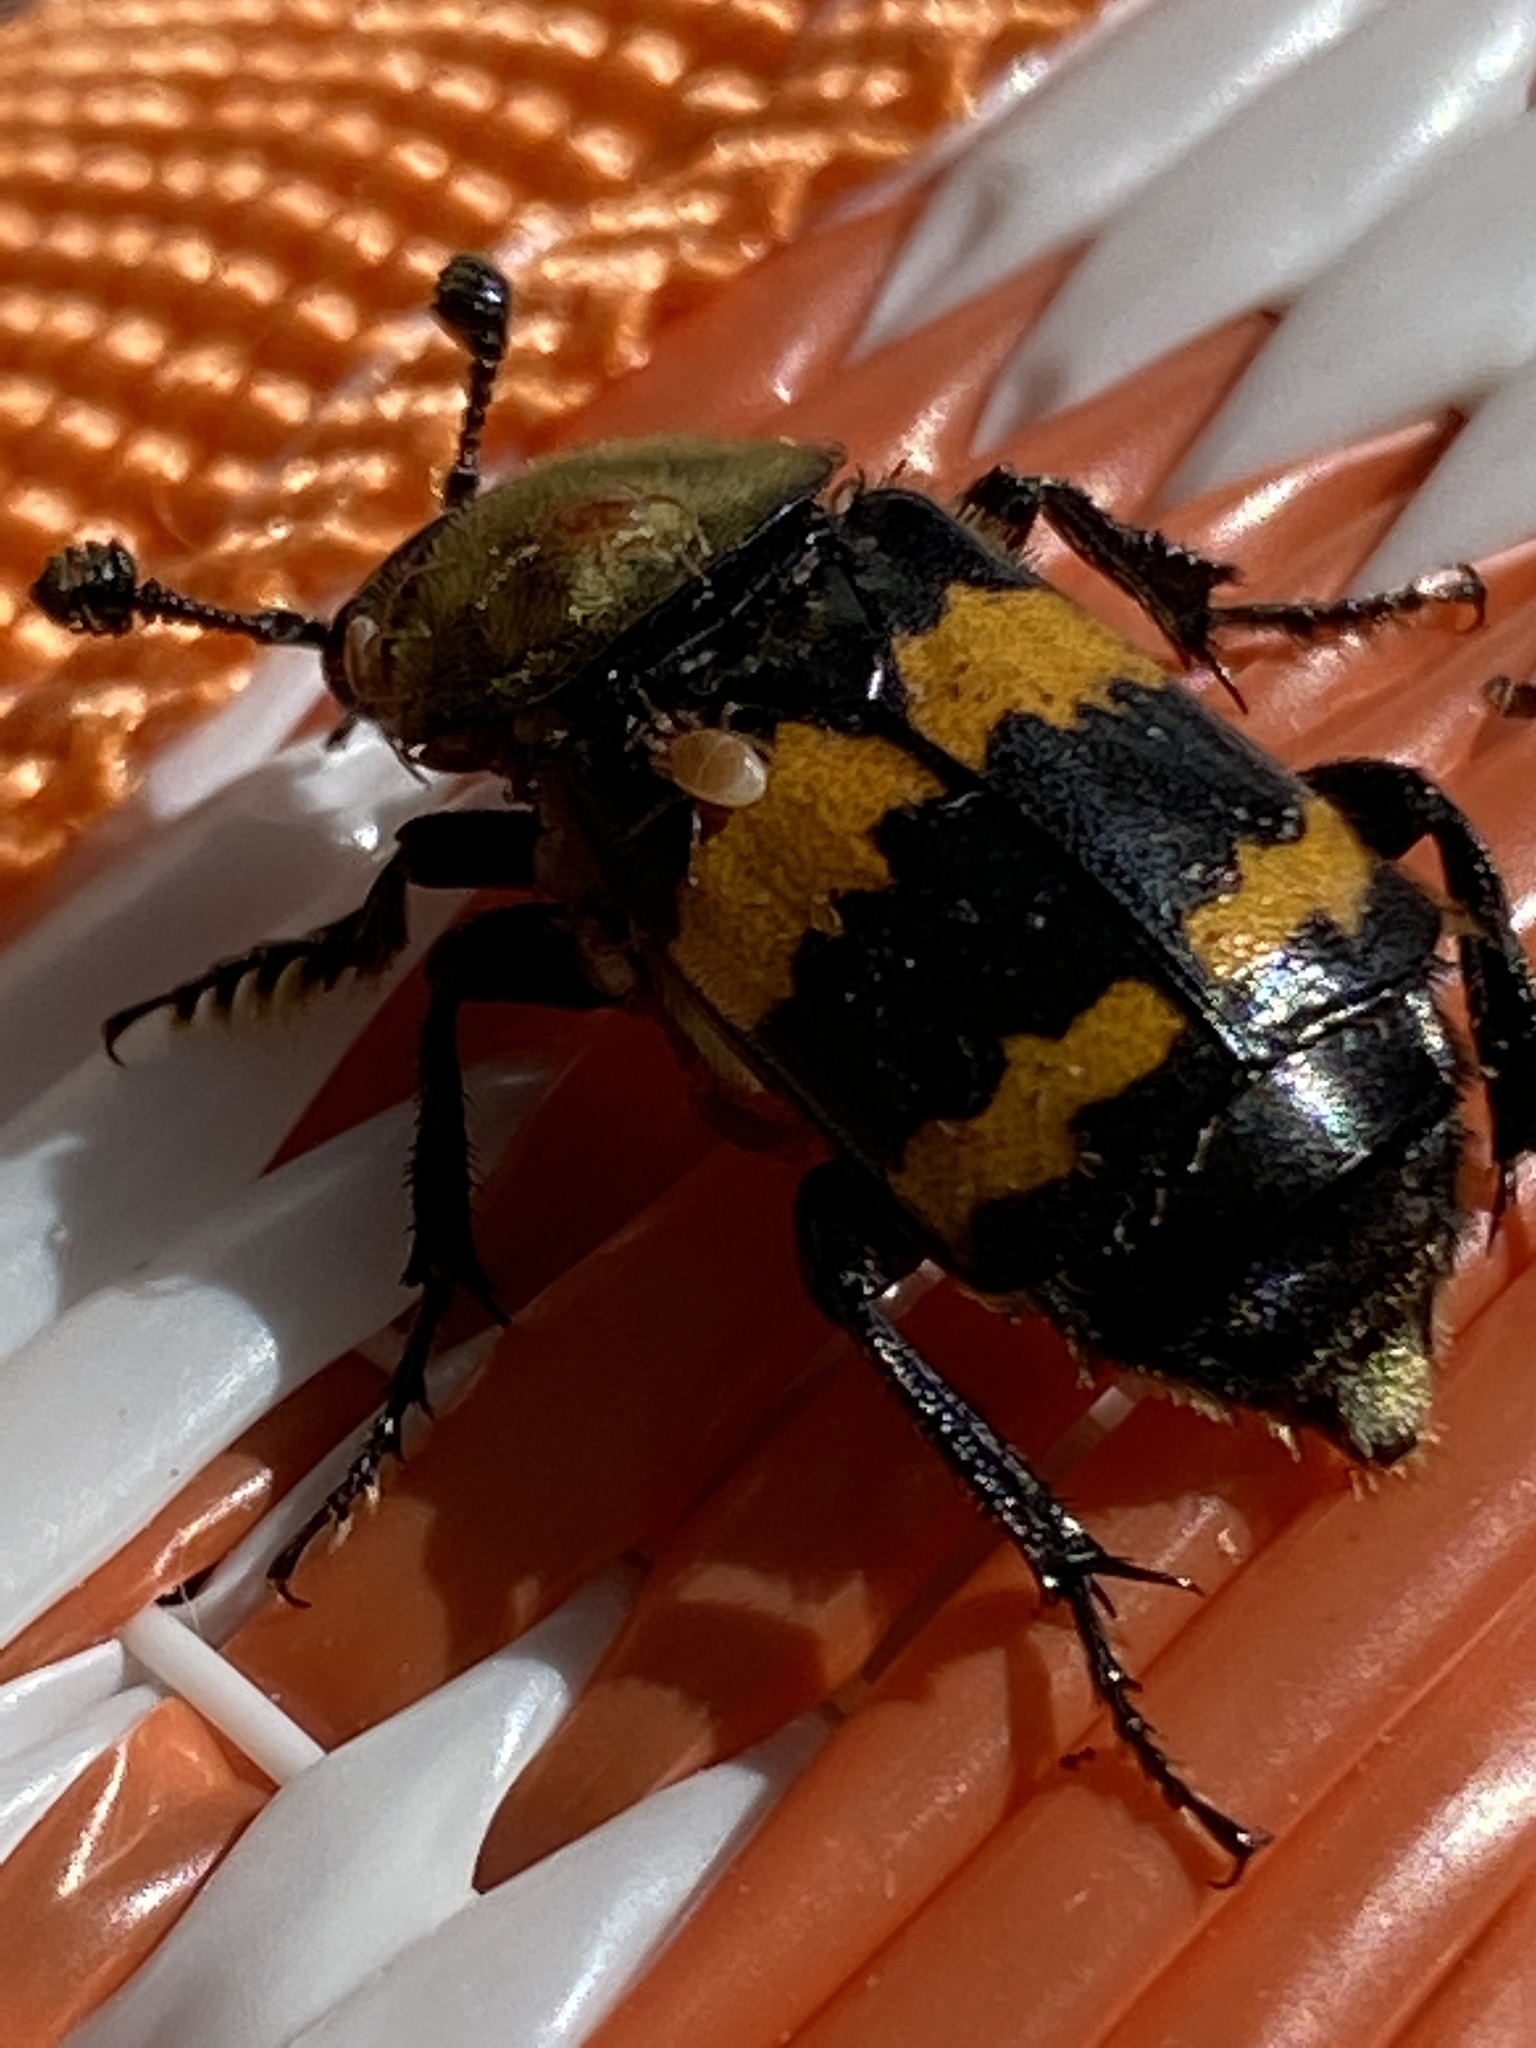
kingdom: Animalia
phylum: Arthropoda
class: Insecta
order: Coleoptera
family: Staphylinidae
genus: Nicrophorus
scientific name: Nicrophorus tomentosus
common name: Tomentose burying beetle
